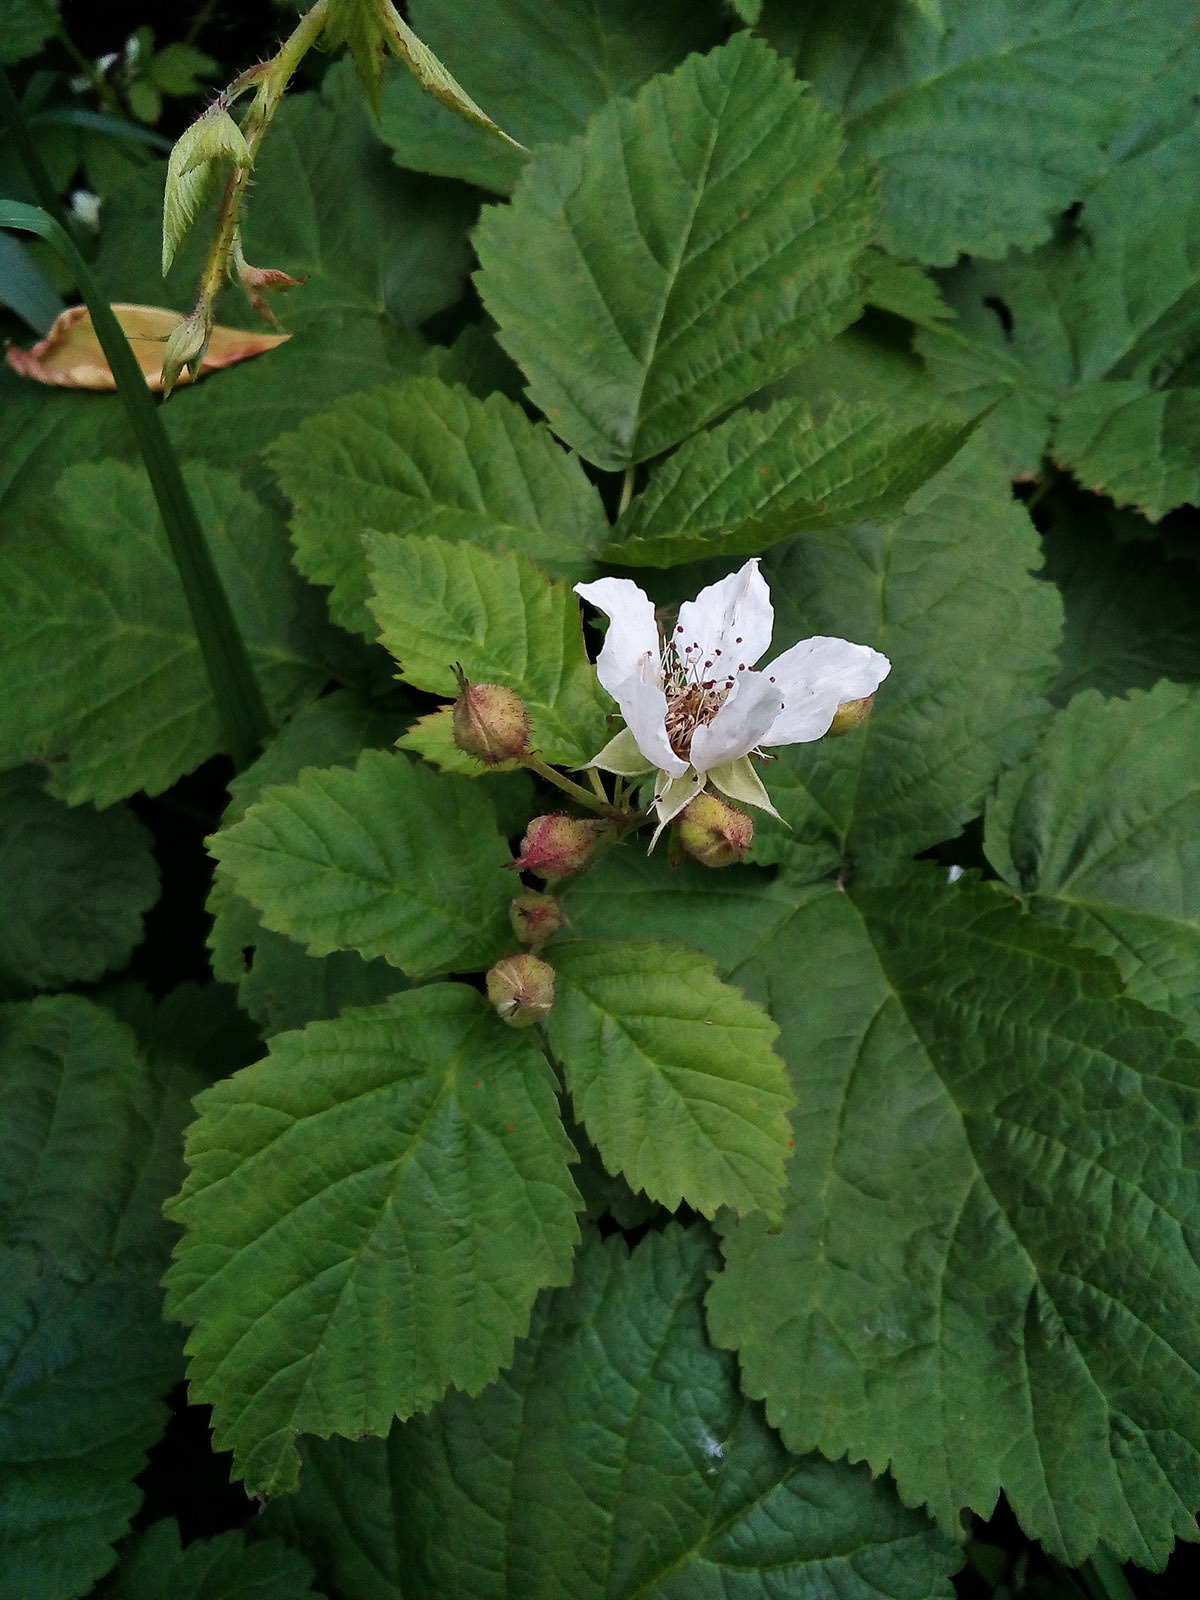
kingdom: Plantae
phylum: Tracheophyta
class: Magnoliopsida
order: Rosales
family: Rosaceae
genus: Rubus
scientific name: Rubus caesius
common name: Dewberry
